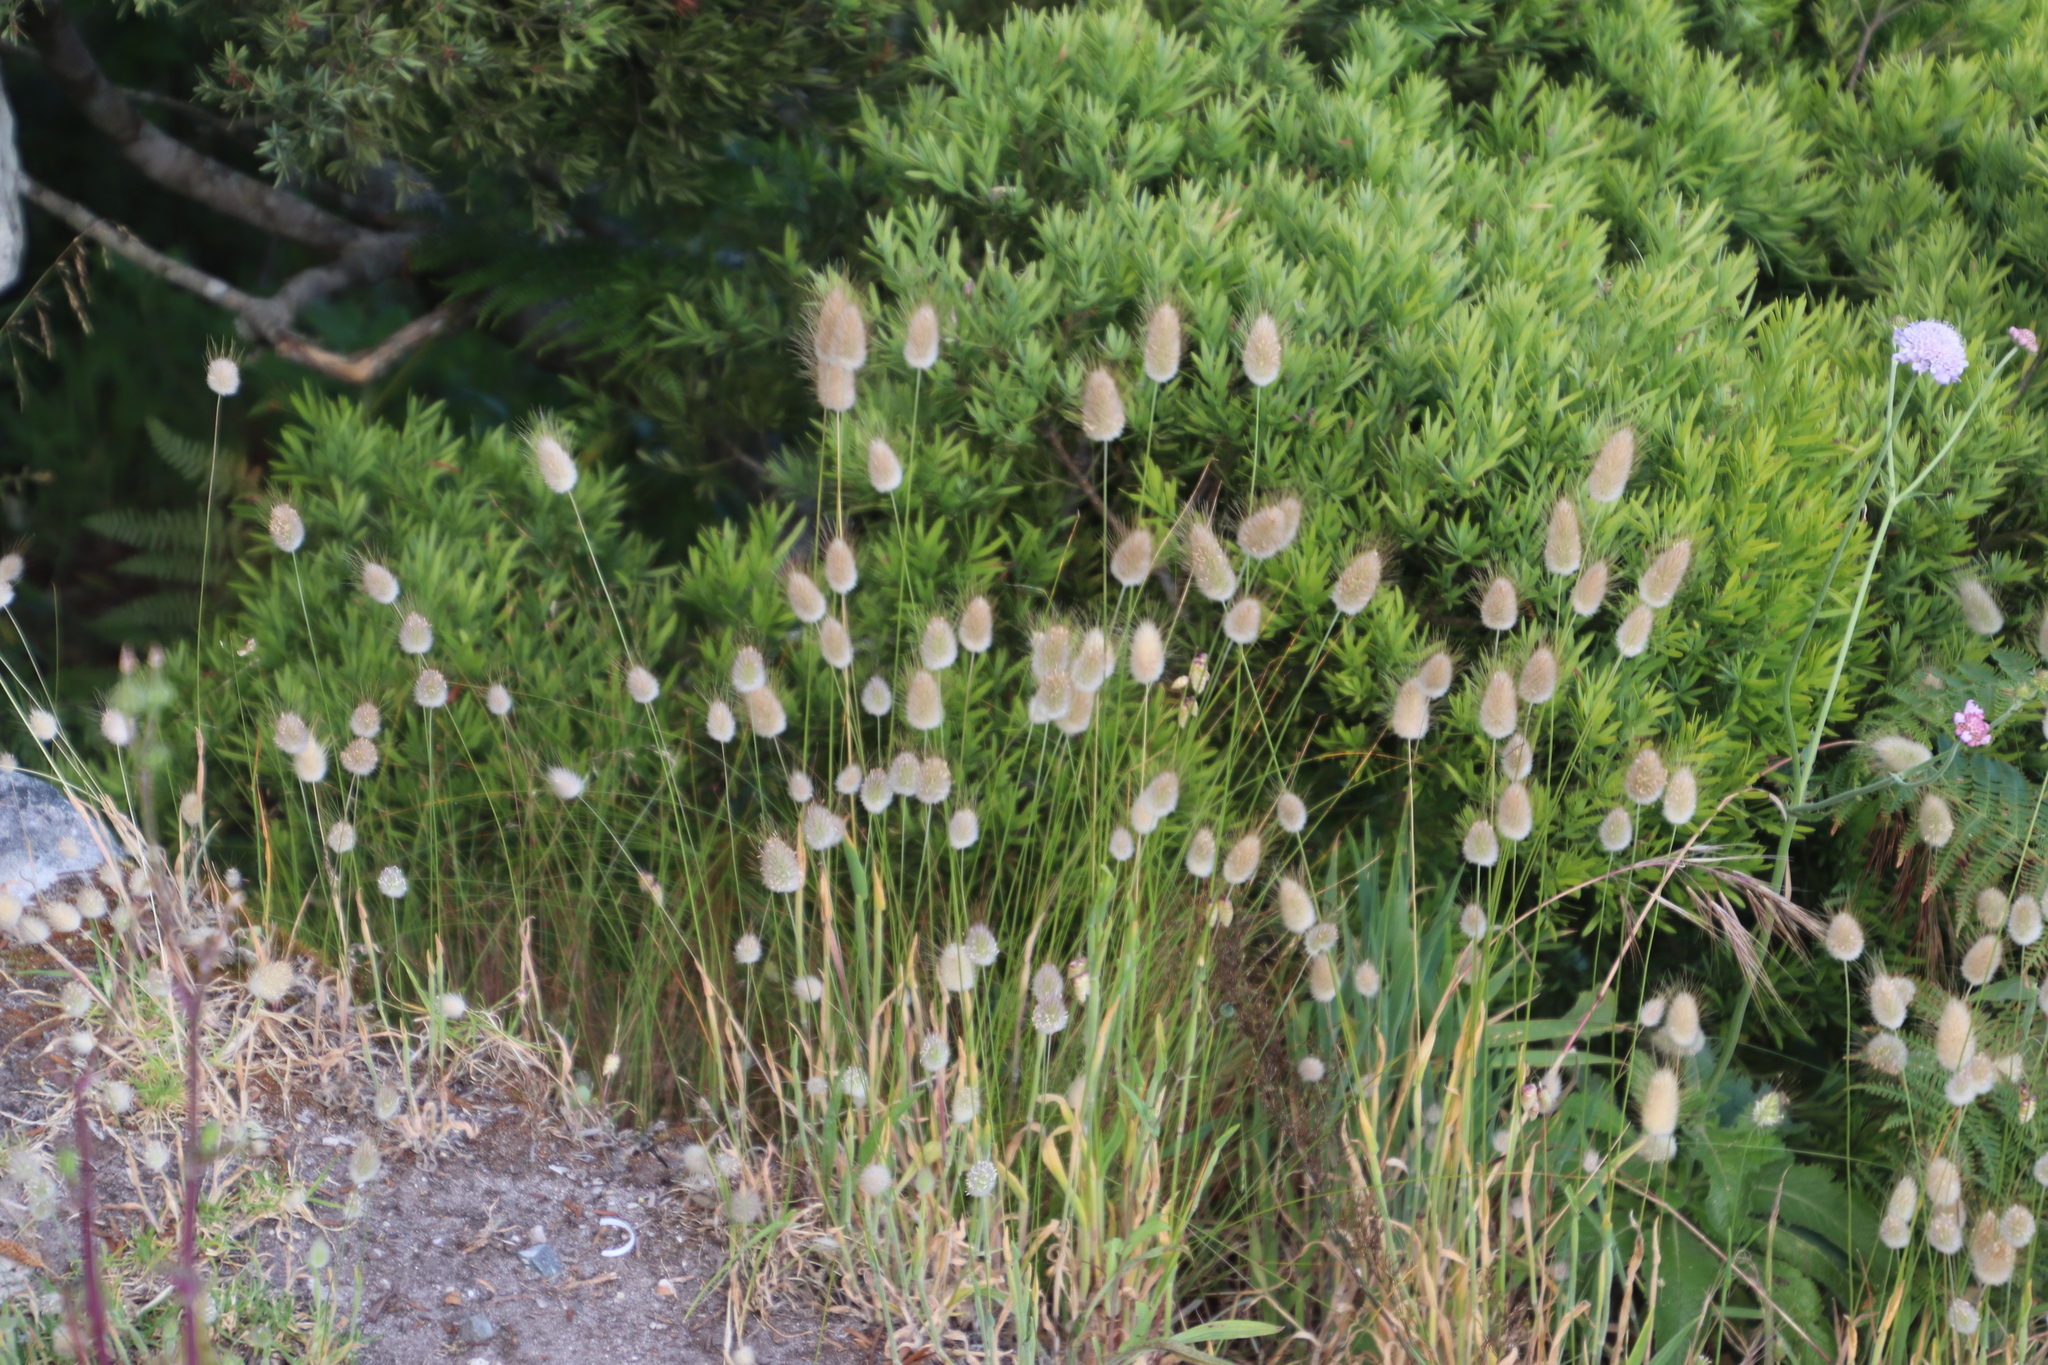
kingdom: Plantae
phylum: Tracheophyta
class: Liliopsida
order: Poales
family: Poaceae
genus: Lagurus
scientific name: Lagurus ovatus
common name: Hare's-tail
